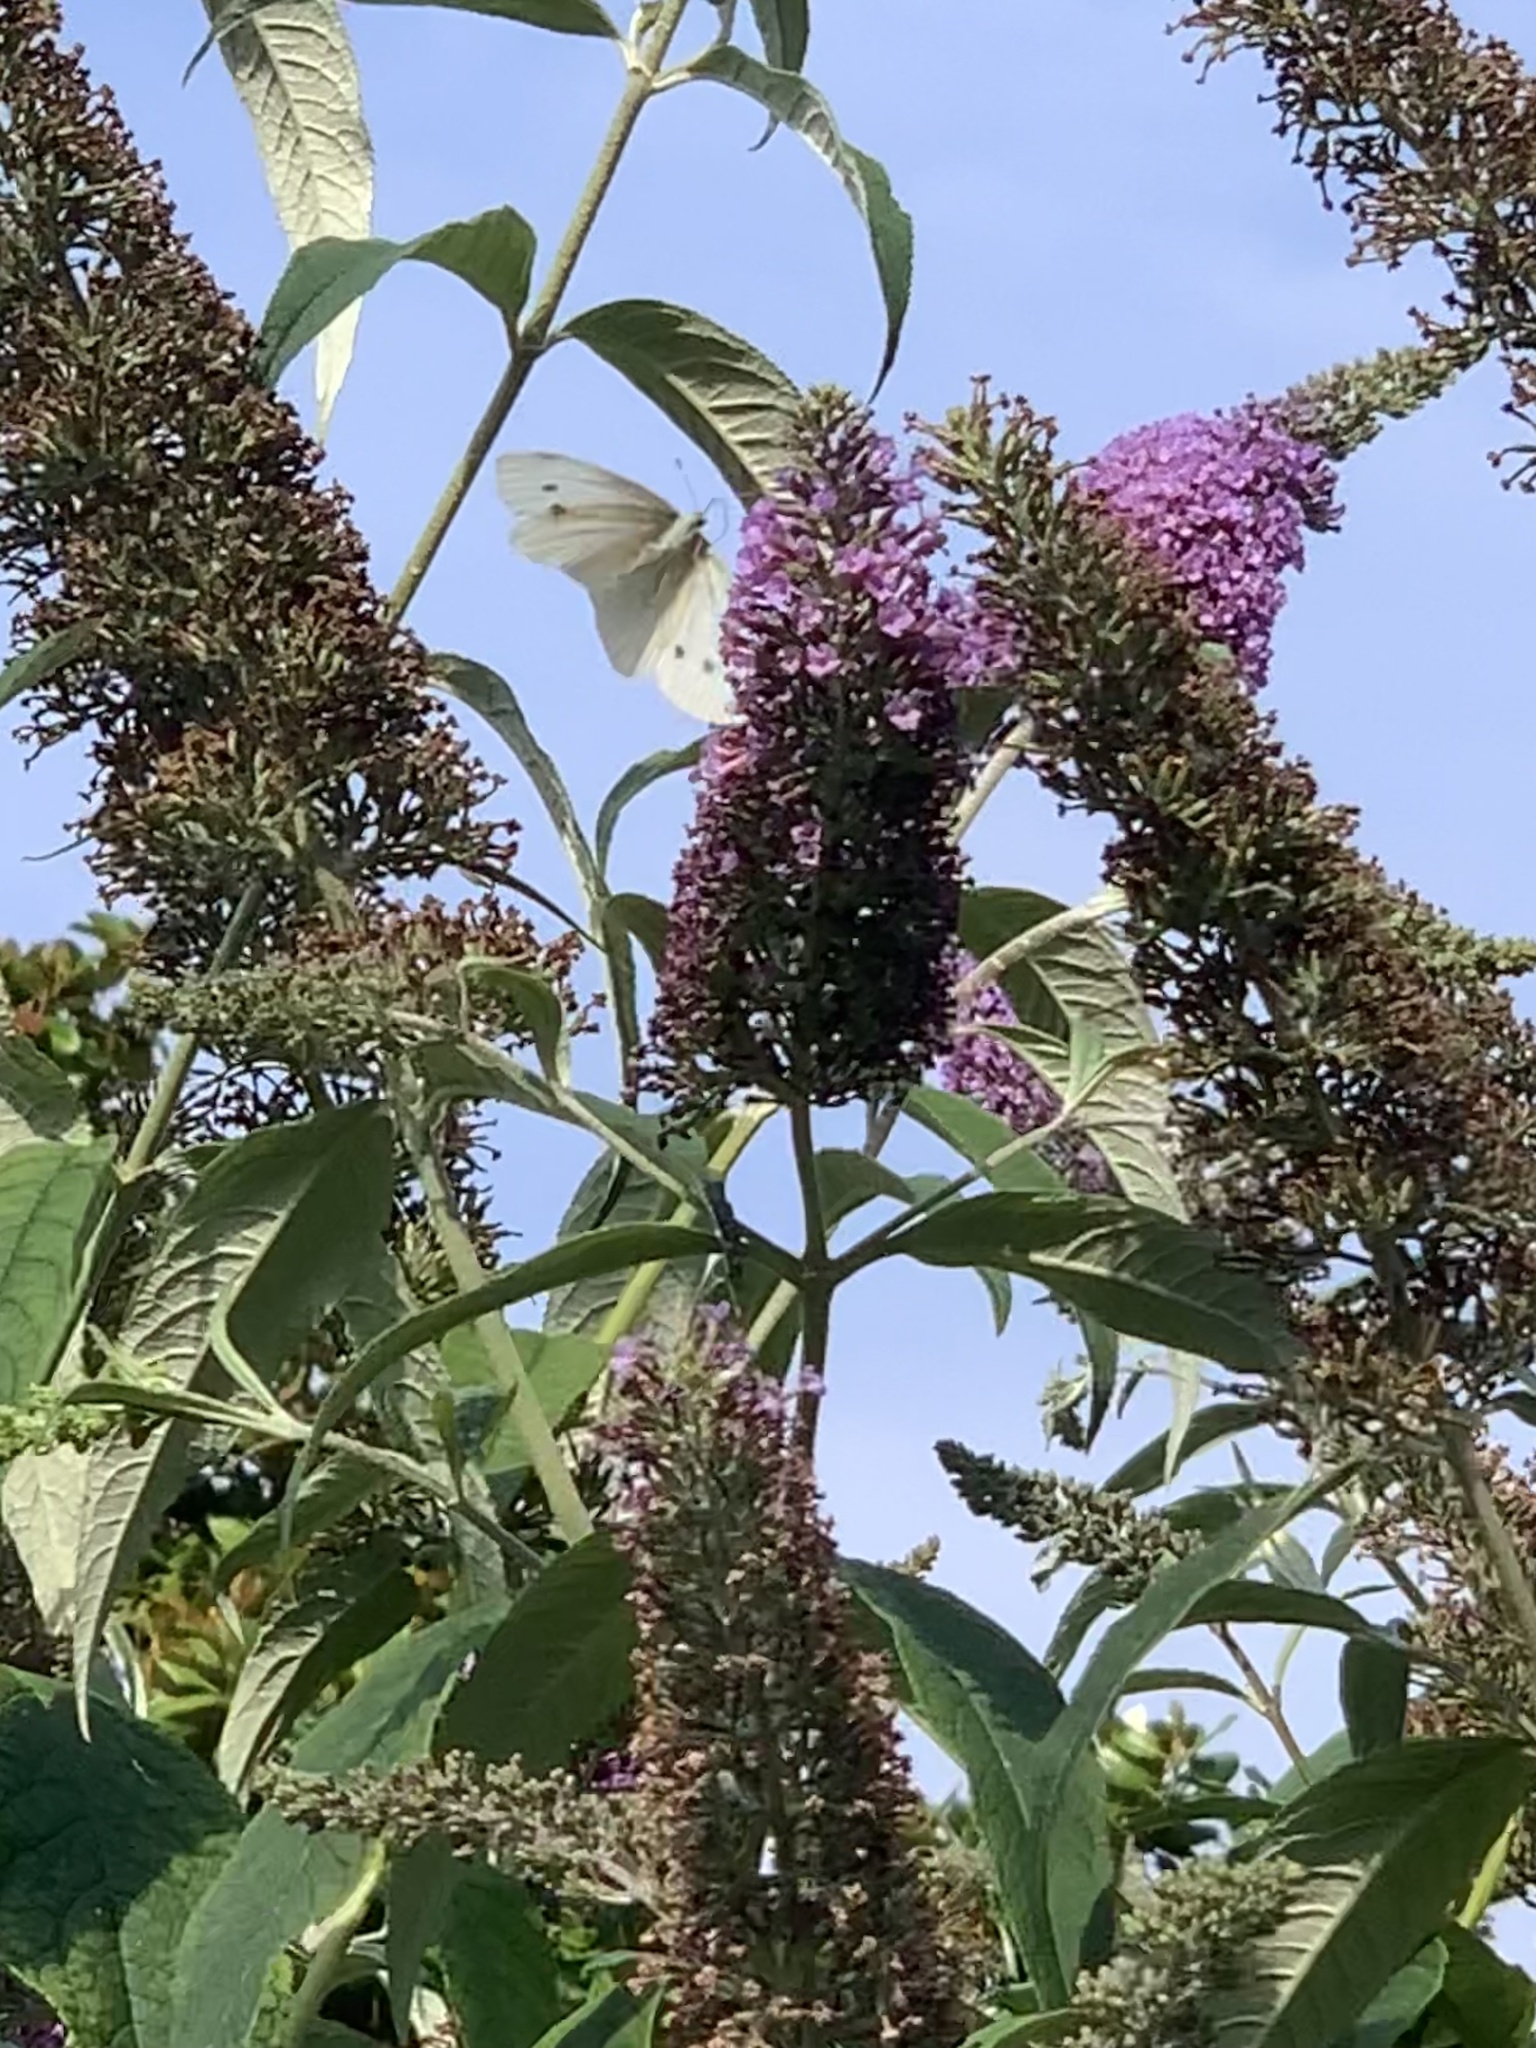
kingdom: Animalia
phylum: Arthropoda
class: Insecta
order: Lepidoptera
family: Pieridae
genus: Pieris
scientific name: Pieris rapae
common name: Small white
